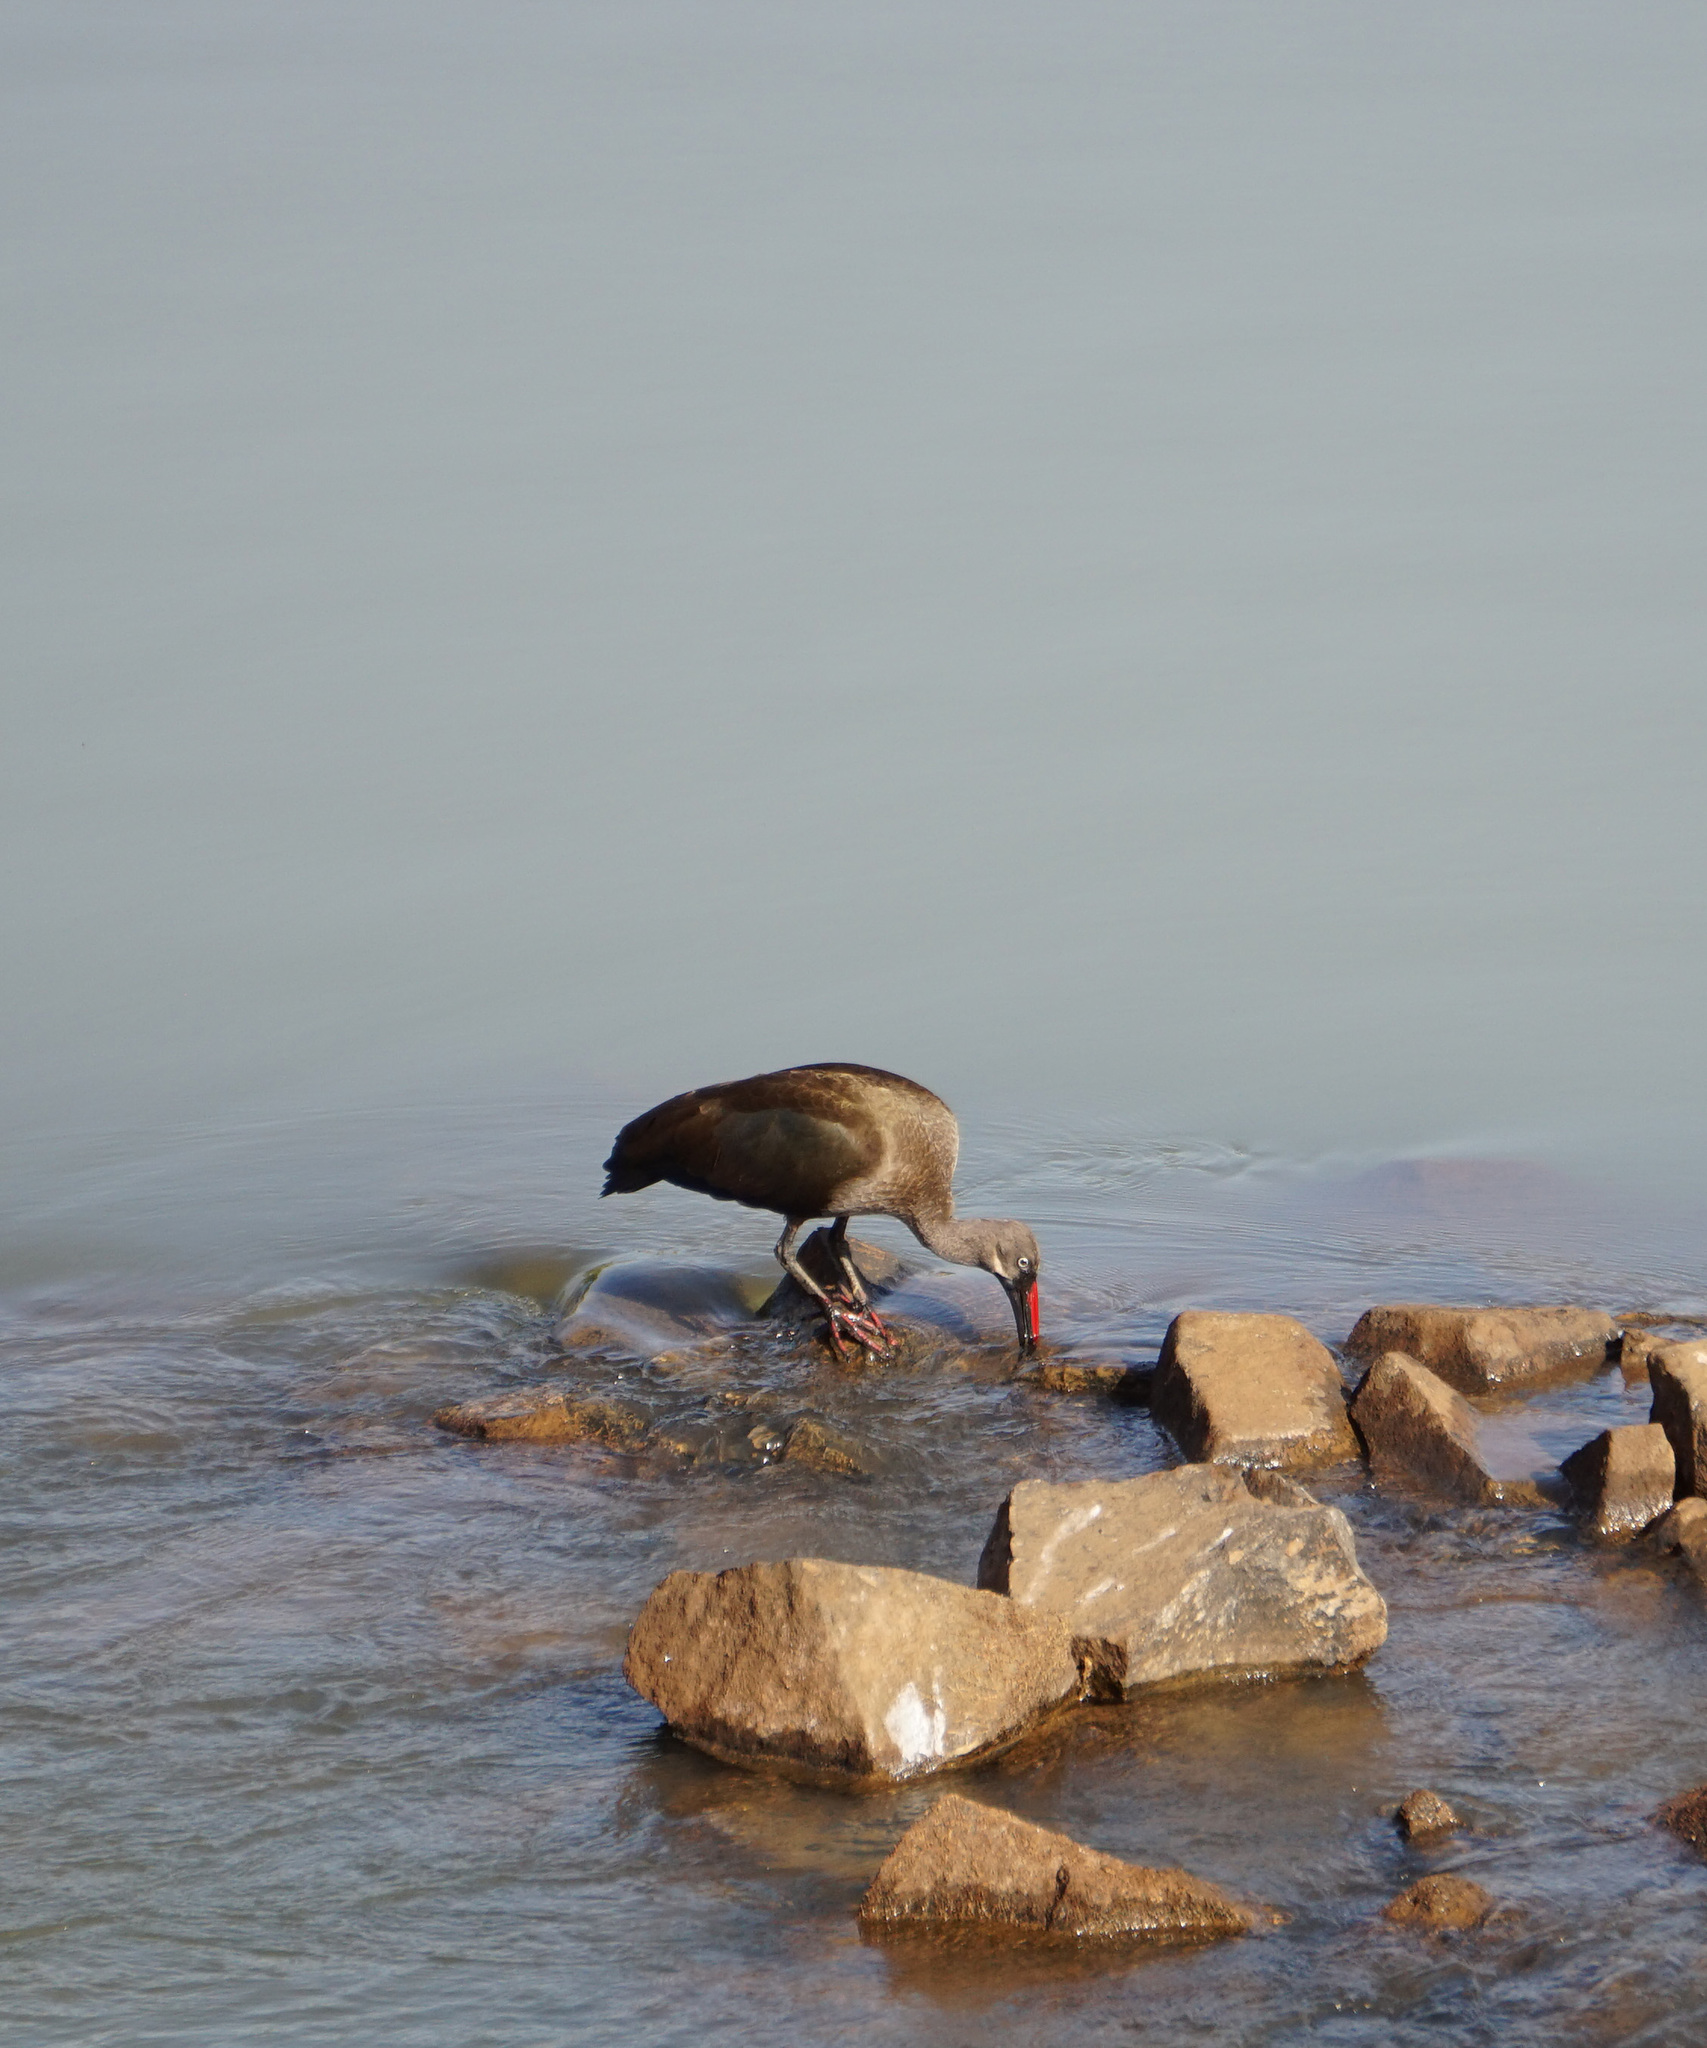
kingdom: Animalia
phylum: Chordata
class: Aves
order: Pelecaniformes
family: Threskiornithidae
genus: Bostrychia
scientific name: Bostrychia hagedash
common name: Hadada ibis
